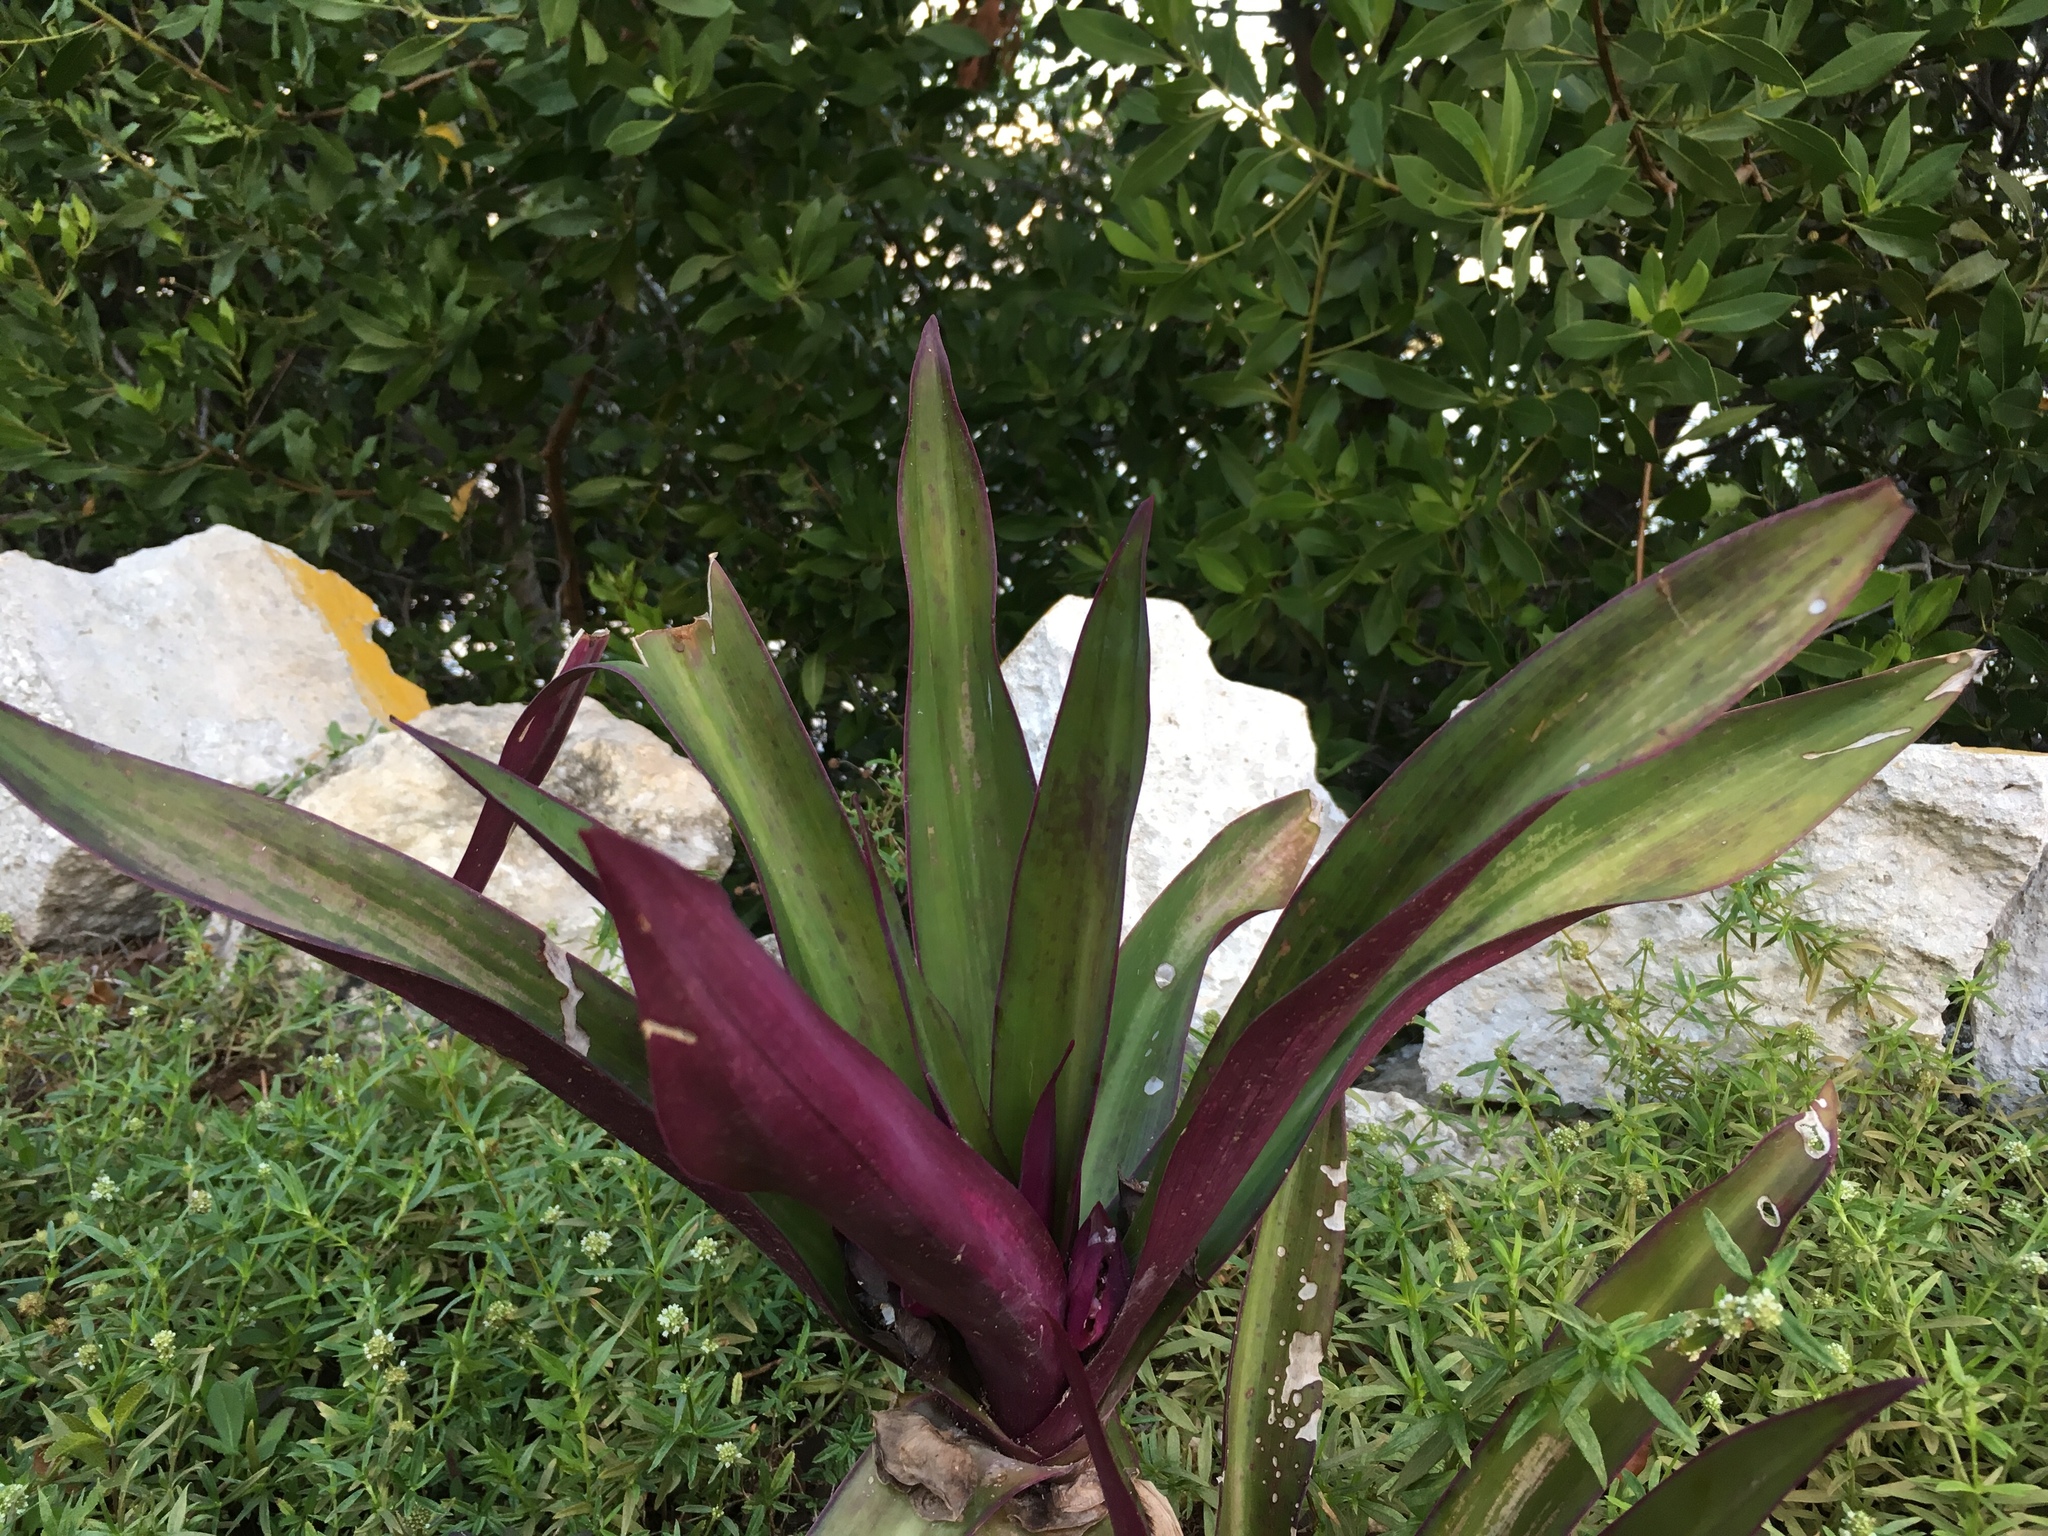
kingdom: Plantae
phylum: Tracheophyta
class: Liliopsida
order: Commelinales
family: Commelinaceae
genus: Tradescantia
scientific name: Tradescantia spathacea
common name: Boatlily
